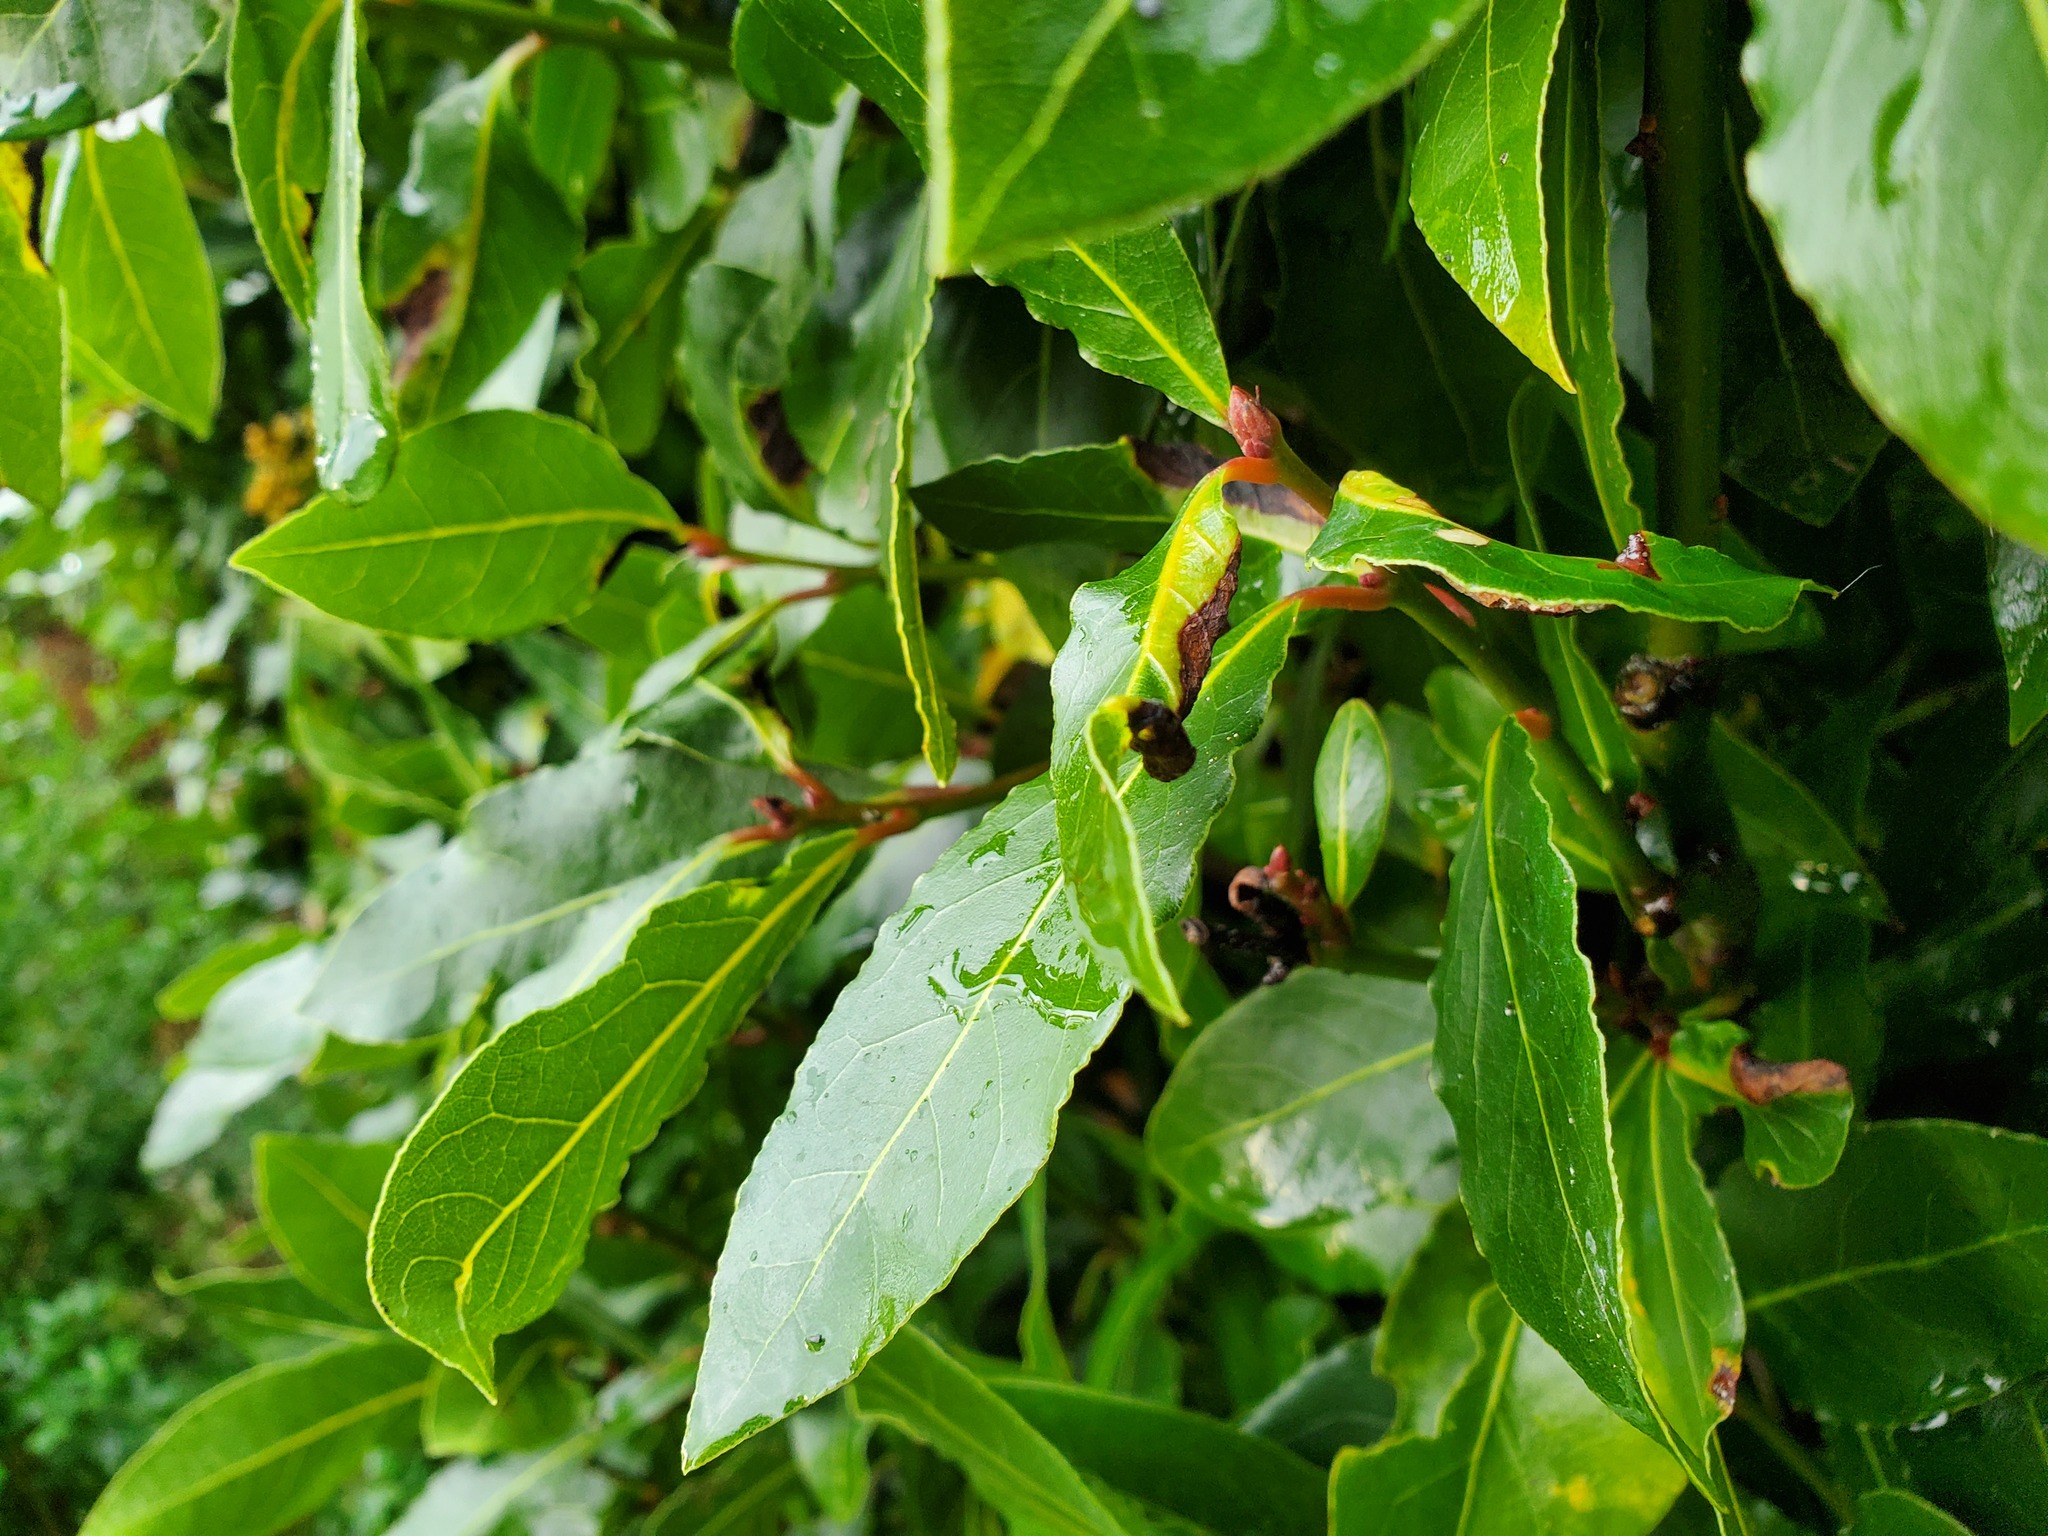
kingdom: Animalia
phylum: Arthropoda
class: Insecta
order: Hemiptera
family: Triozidae
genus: Lauritrioza
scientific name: Lauritrioza alacris
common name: Laurel psyllid
